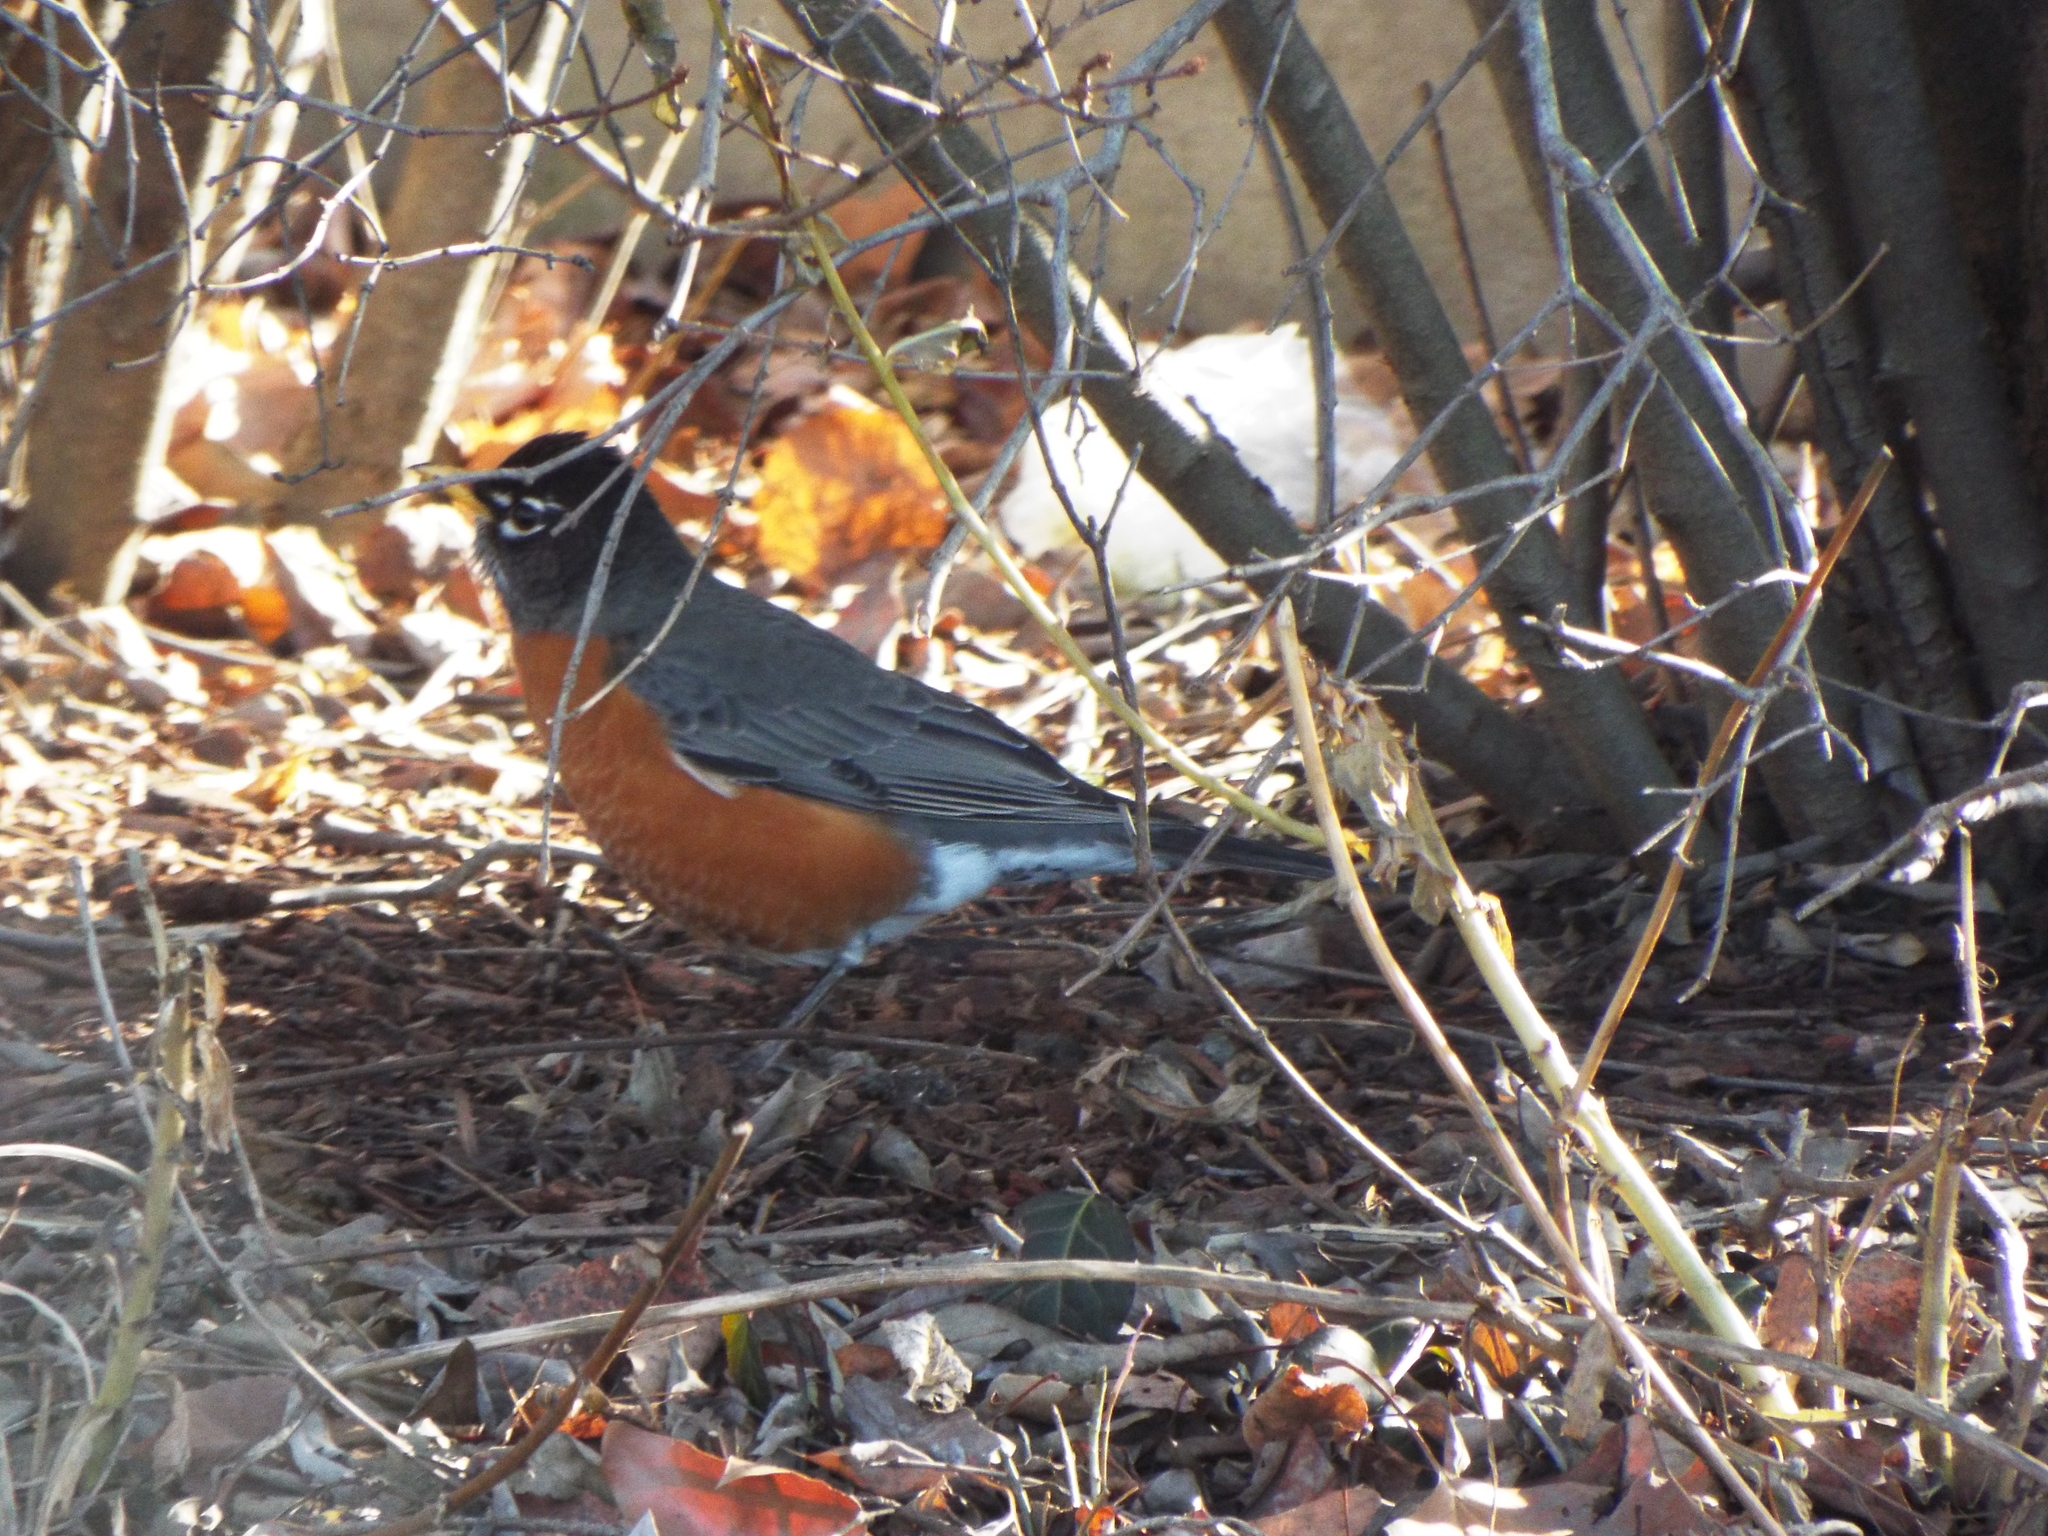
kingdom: Animalia
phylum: Chordata
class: Aves
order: Passeriformes
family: Turdidae
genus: Turdus
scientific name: Turdus migratorius
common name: American robin
